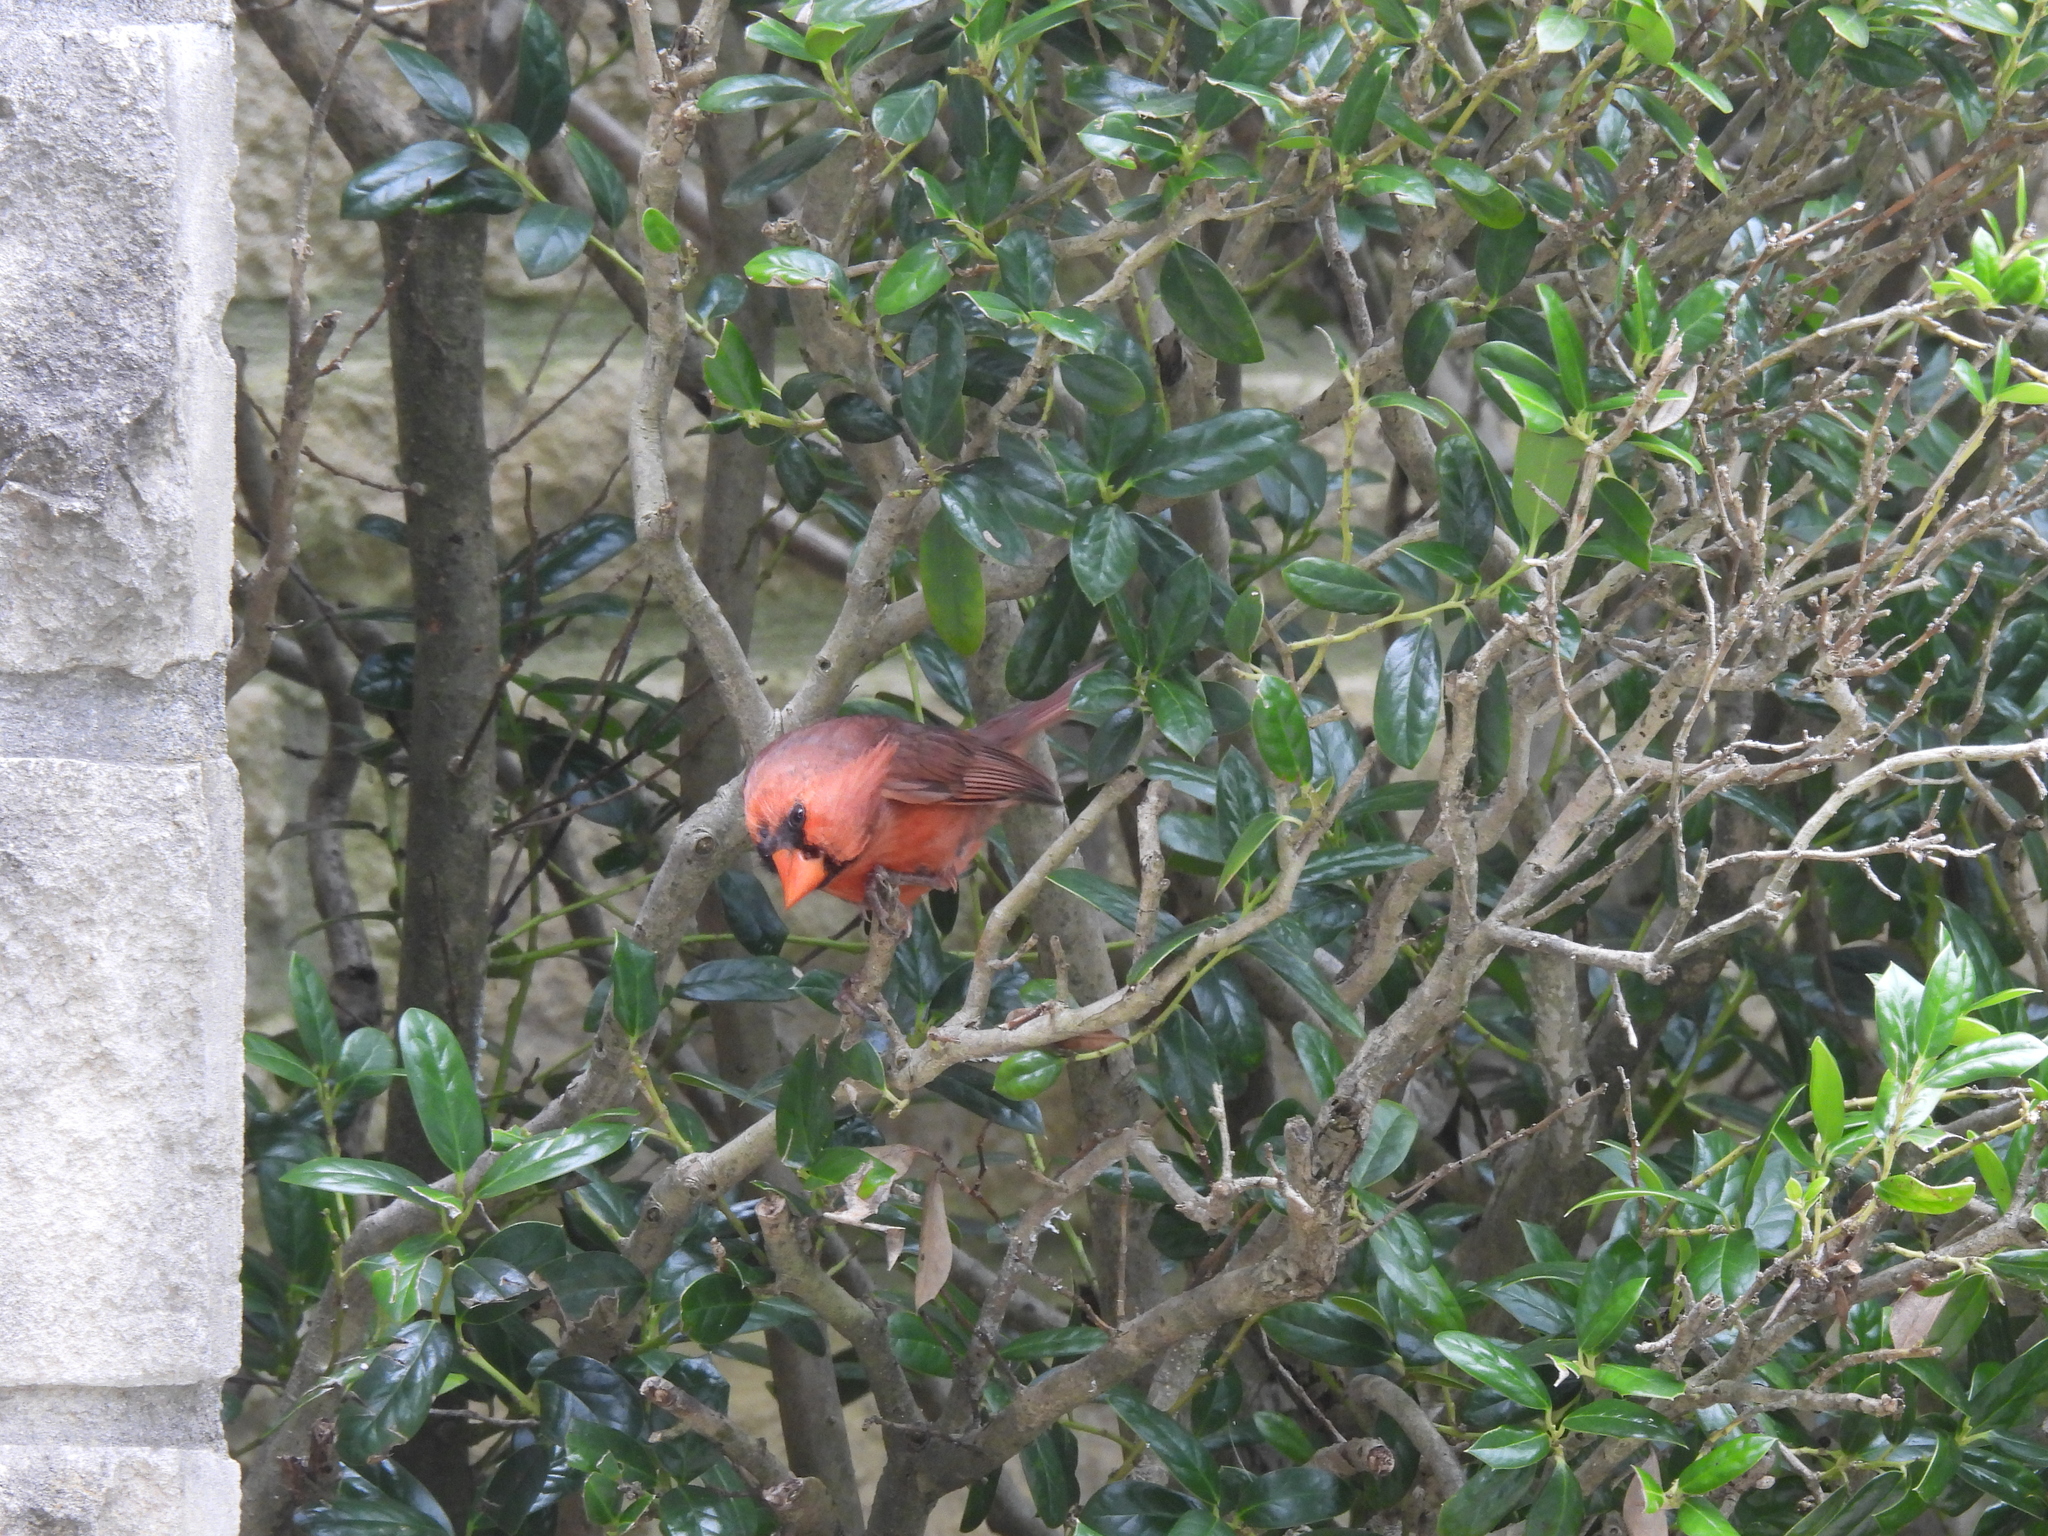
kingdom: Animalia
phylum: Chordata
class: Aves
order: Passeriformes
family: Cardinalidae
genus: Cardinalis
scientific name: Cardinalis cardinalis
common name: Northern cardinal
